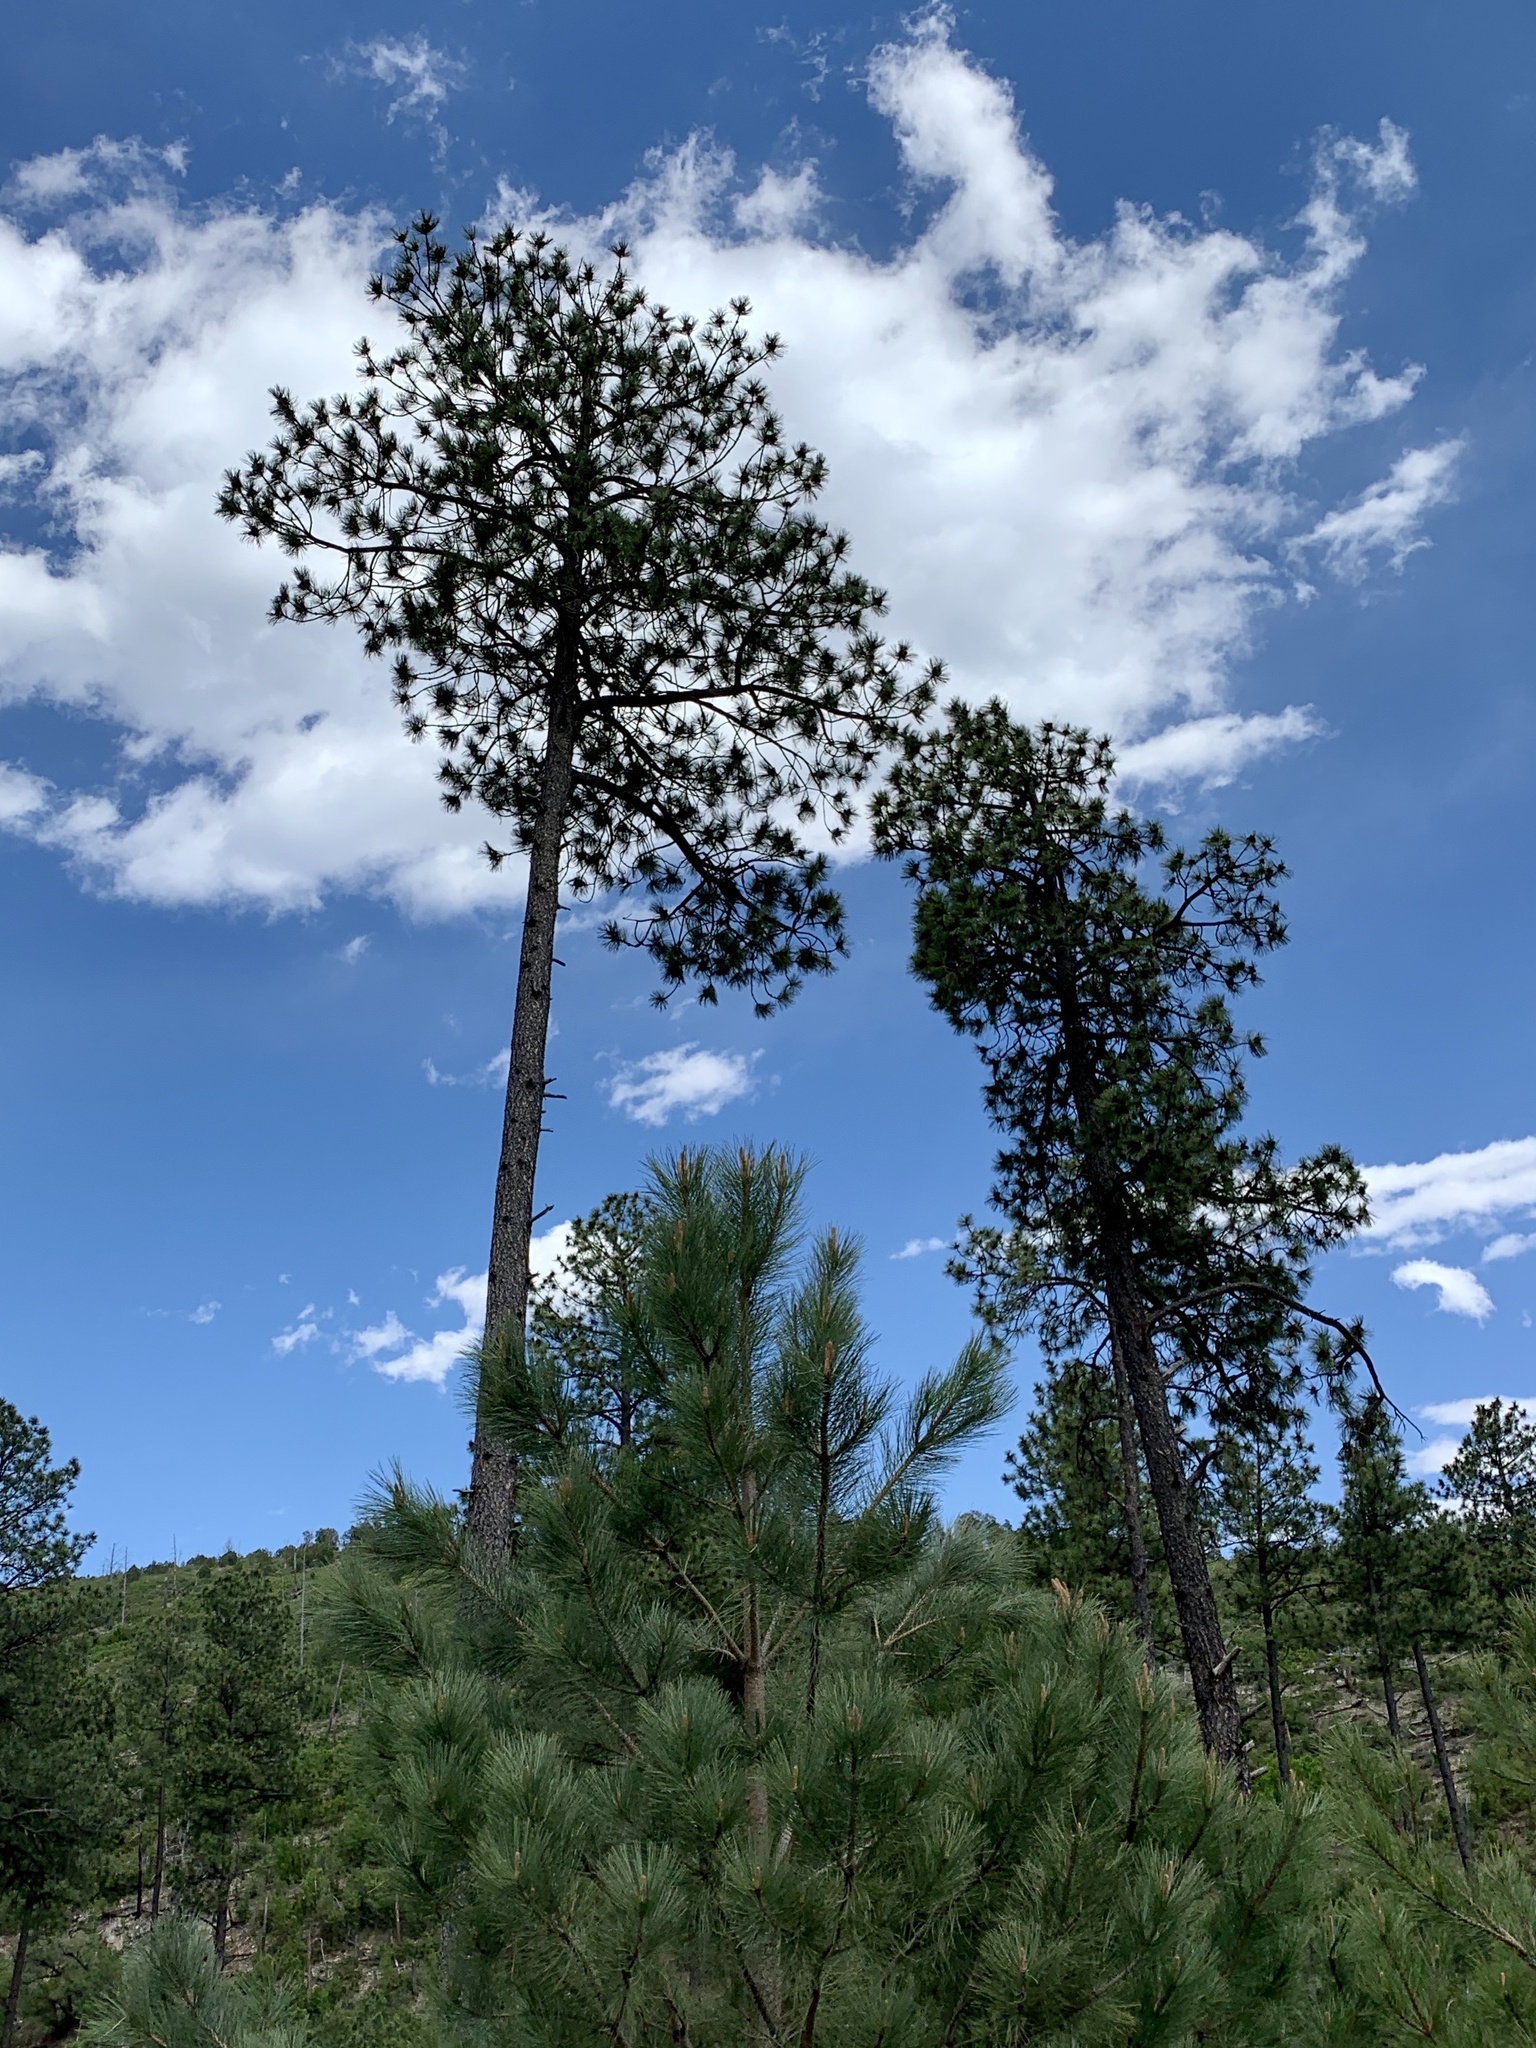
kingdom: Plantae
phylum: Tracheophyta
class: Pinopsida
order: Pinales
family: Pinaceae
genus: Pinus
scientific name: Pinus ponderosa
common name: Western yellow-pine
